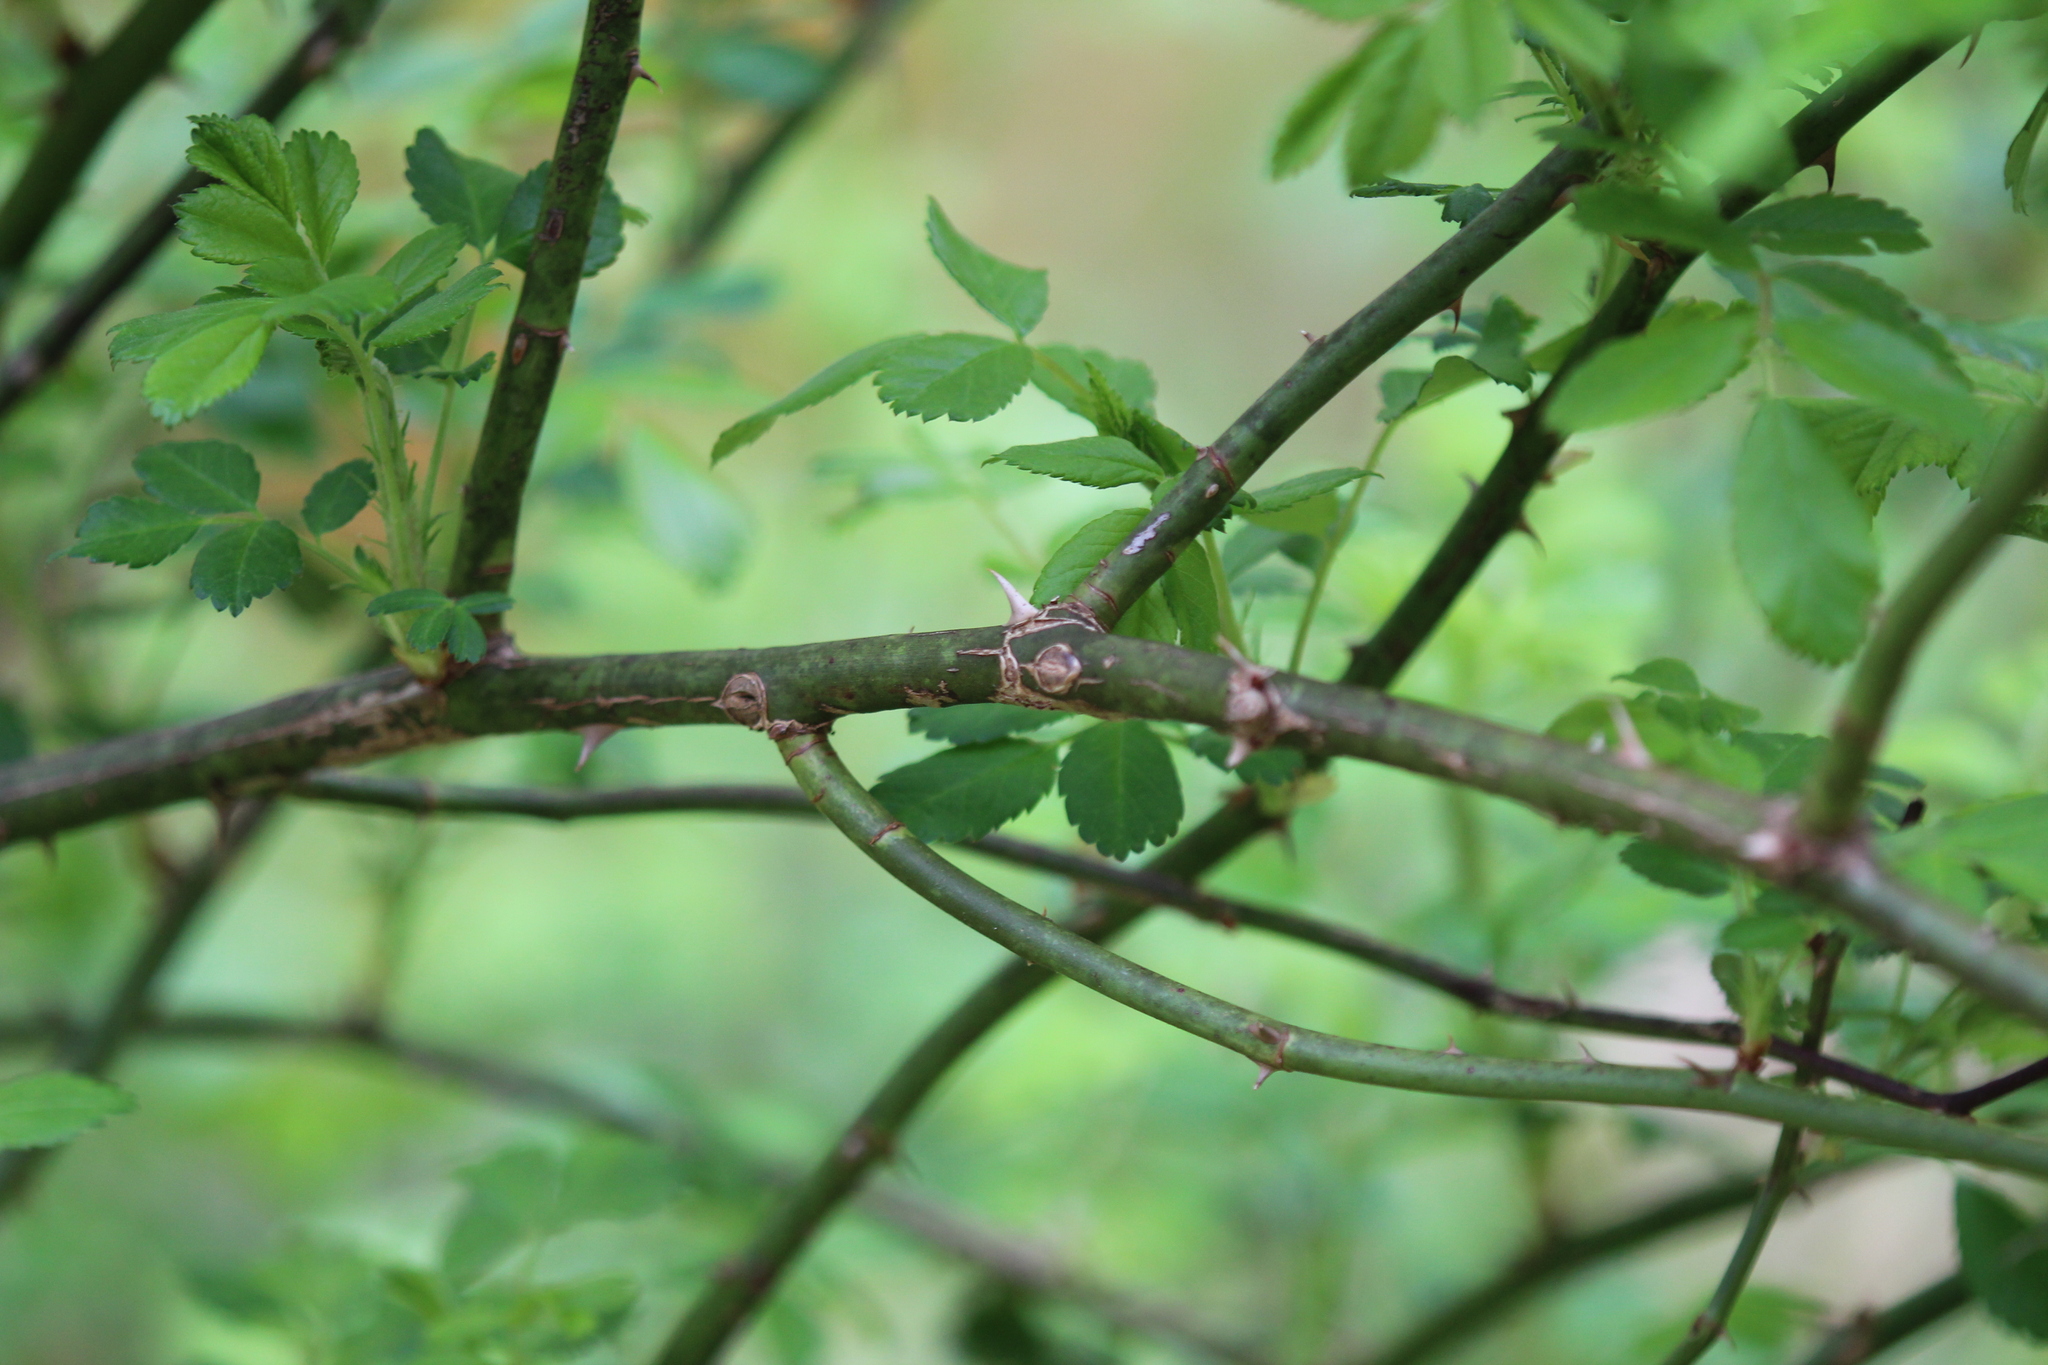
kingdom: Plantae
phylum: Tracheophyta
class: Magnoliopsida
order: Rosales
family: Rosaceae
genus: Rosa
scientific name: Rosa multiflora
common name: Multiflora rose
